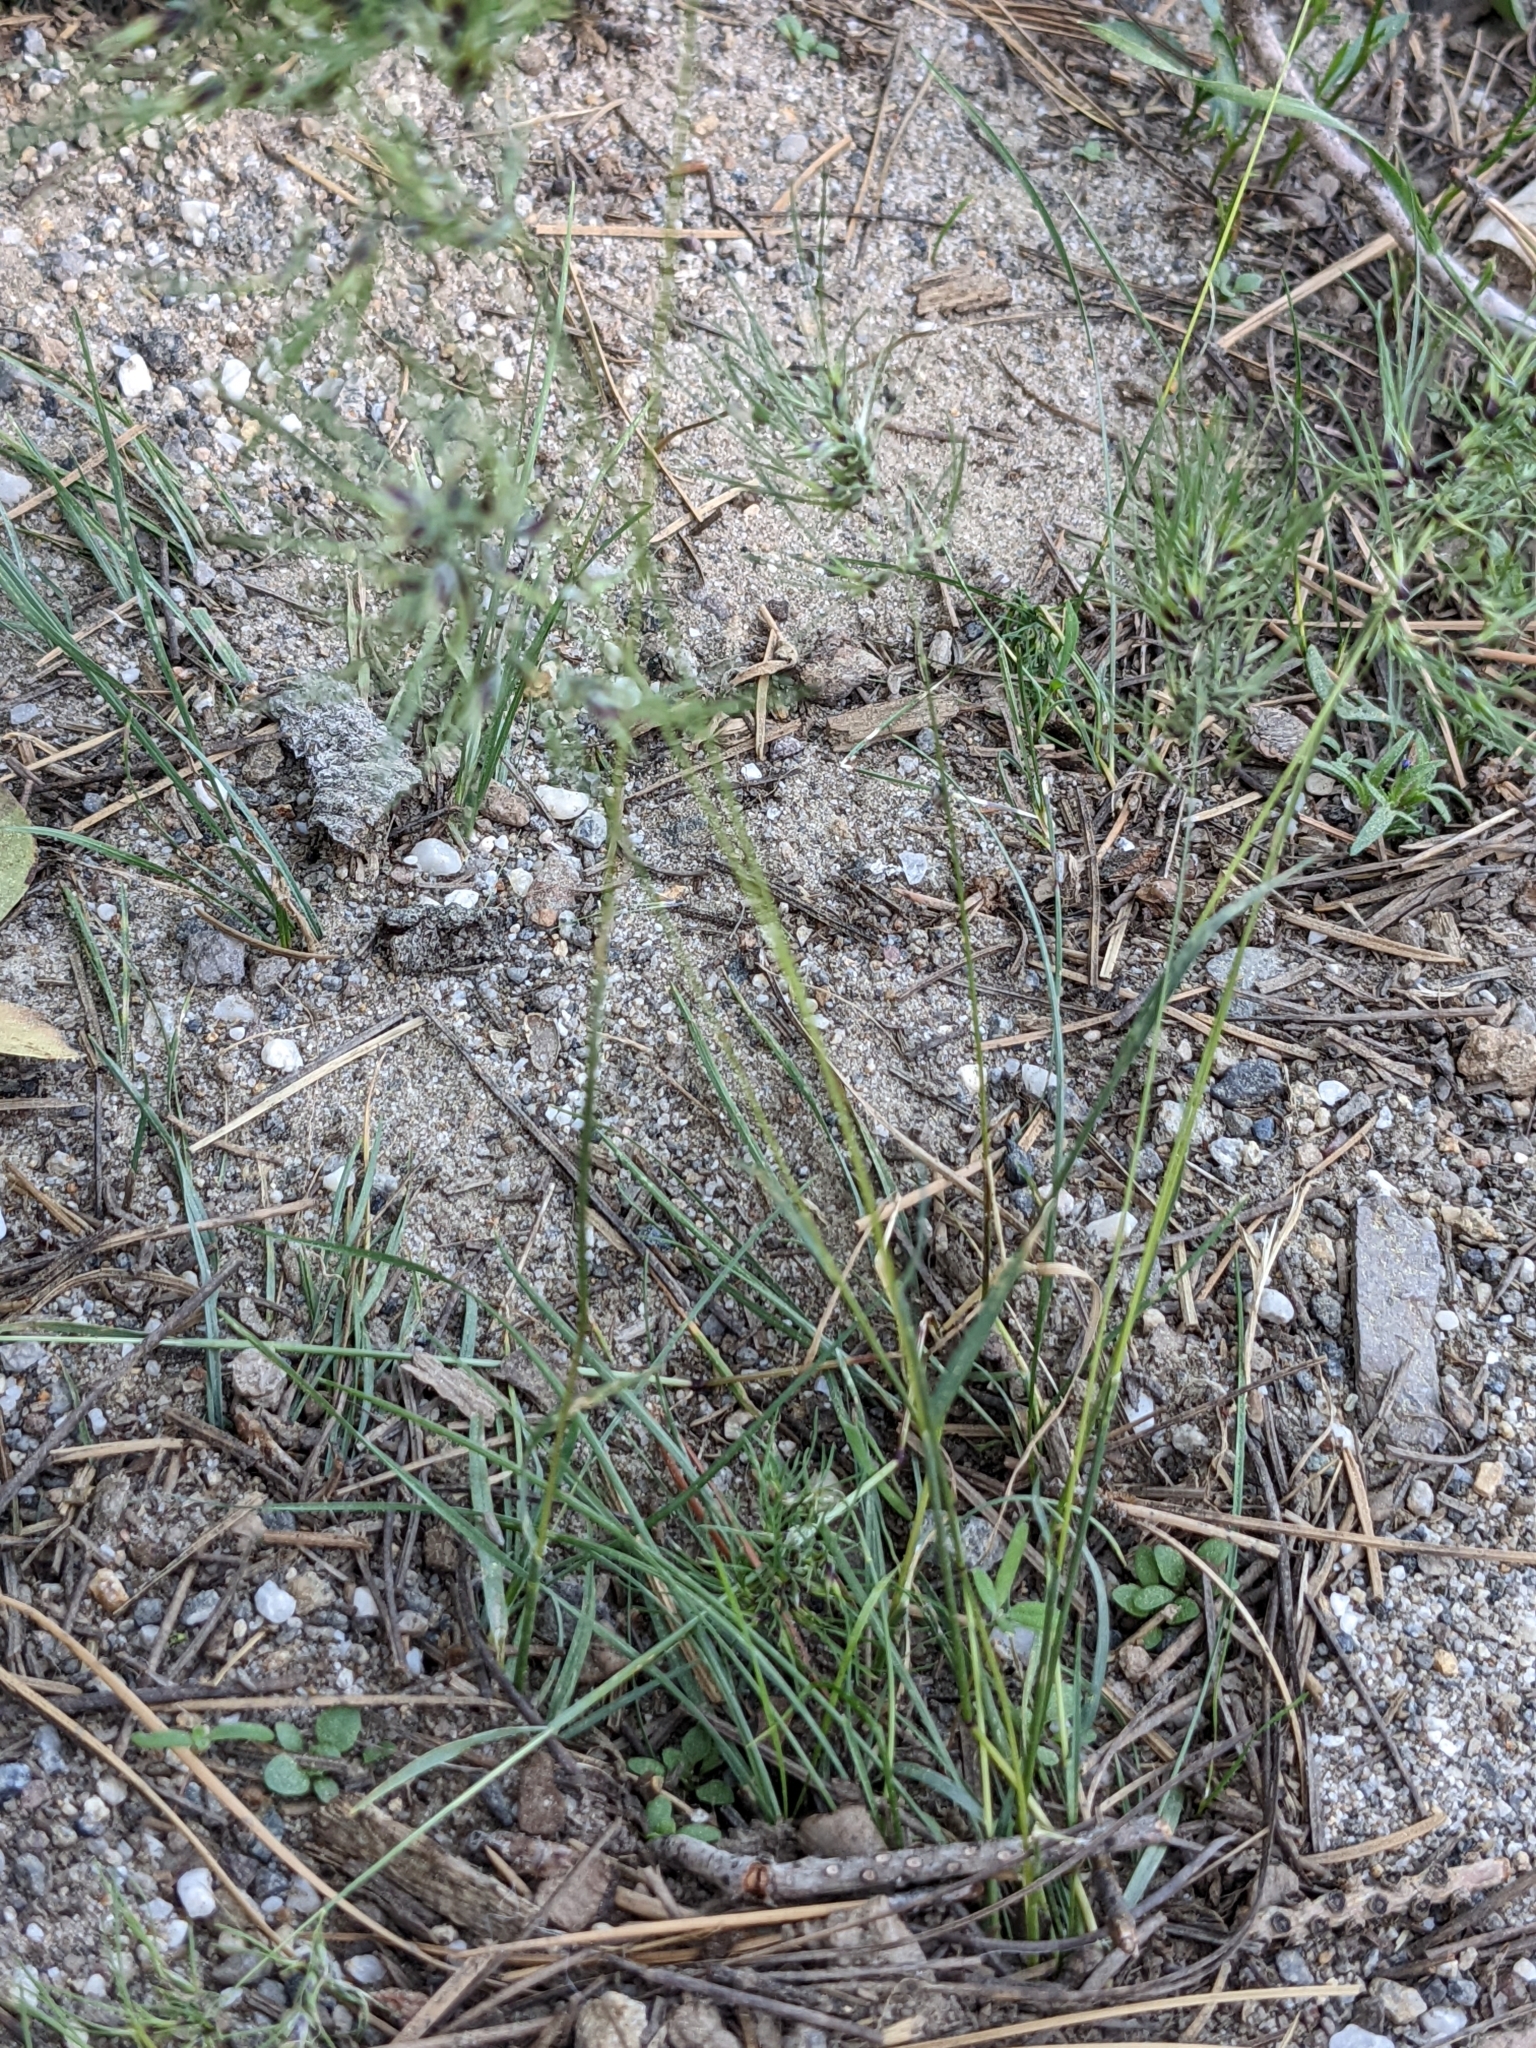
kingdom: Plantae
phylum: Tracheophyta
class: Liliopsida
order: Poales
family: Poaceae
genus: Poa
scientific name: Poa bulbosa
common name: Bulbous bluegrass
